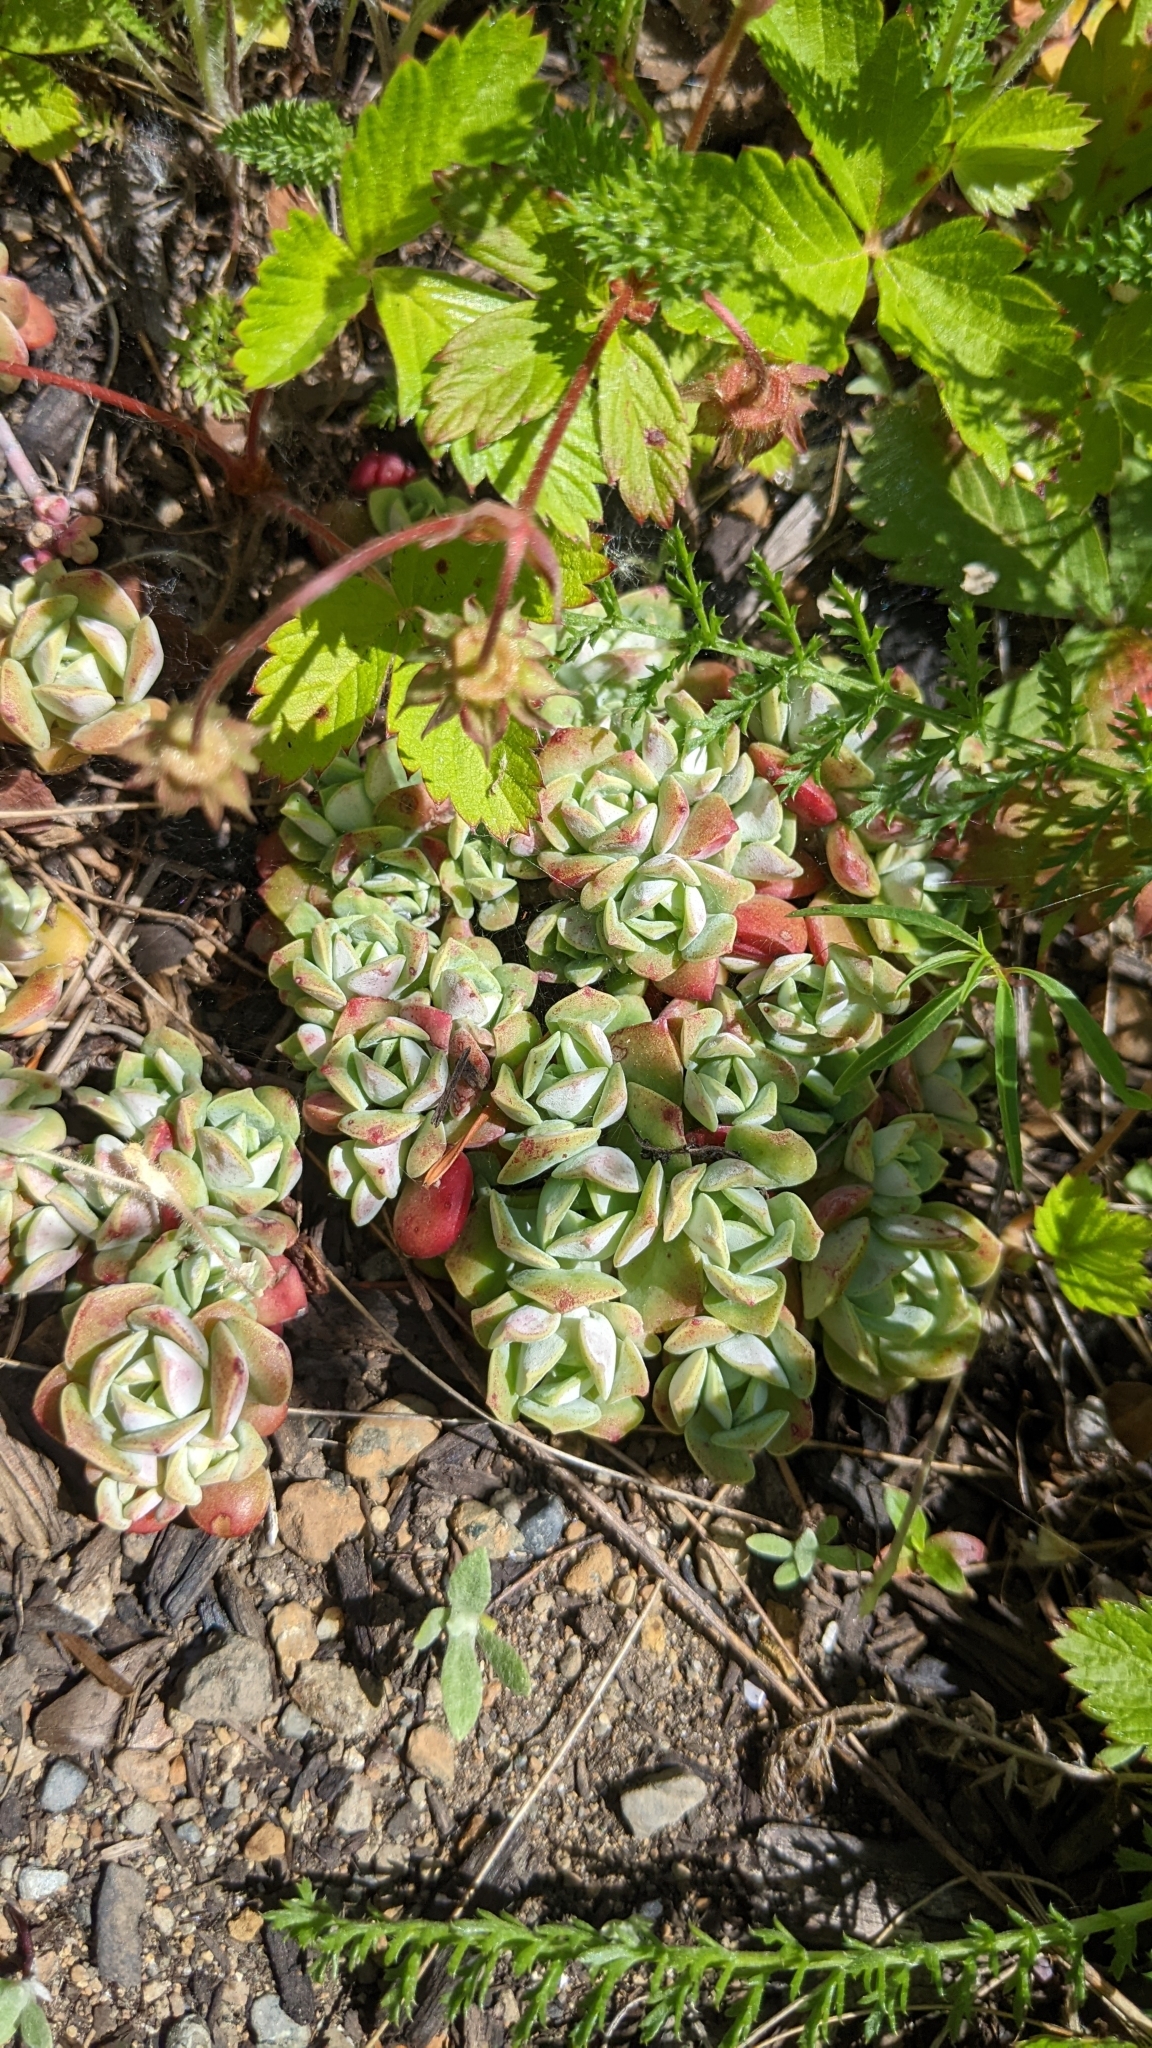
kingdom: Plantae
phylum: Tracheophyta
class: Magnoliopsida
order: Saxifragales
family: Crassulaceae
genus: Sedum
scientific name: Sedum spathulifolium
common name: Colorado stonecrop
